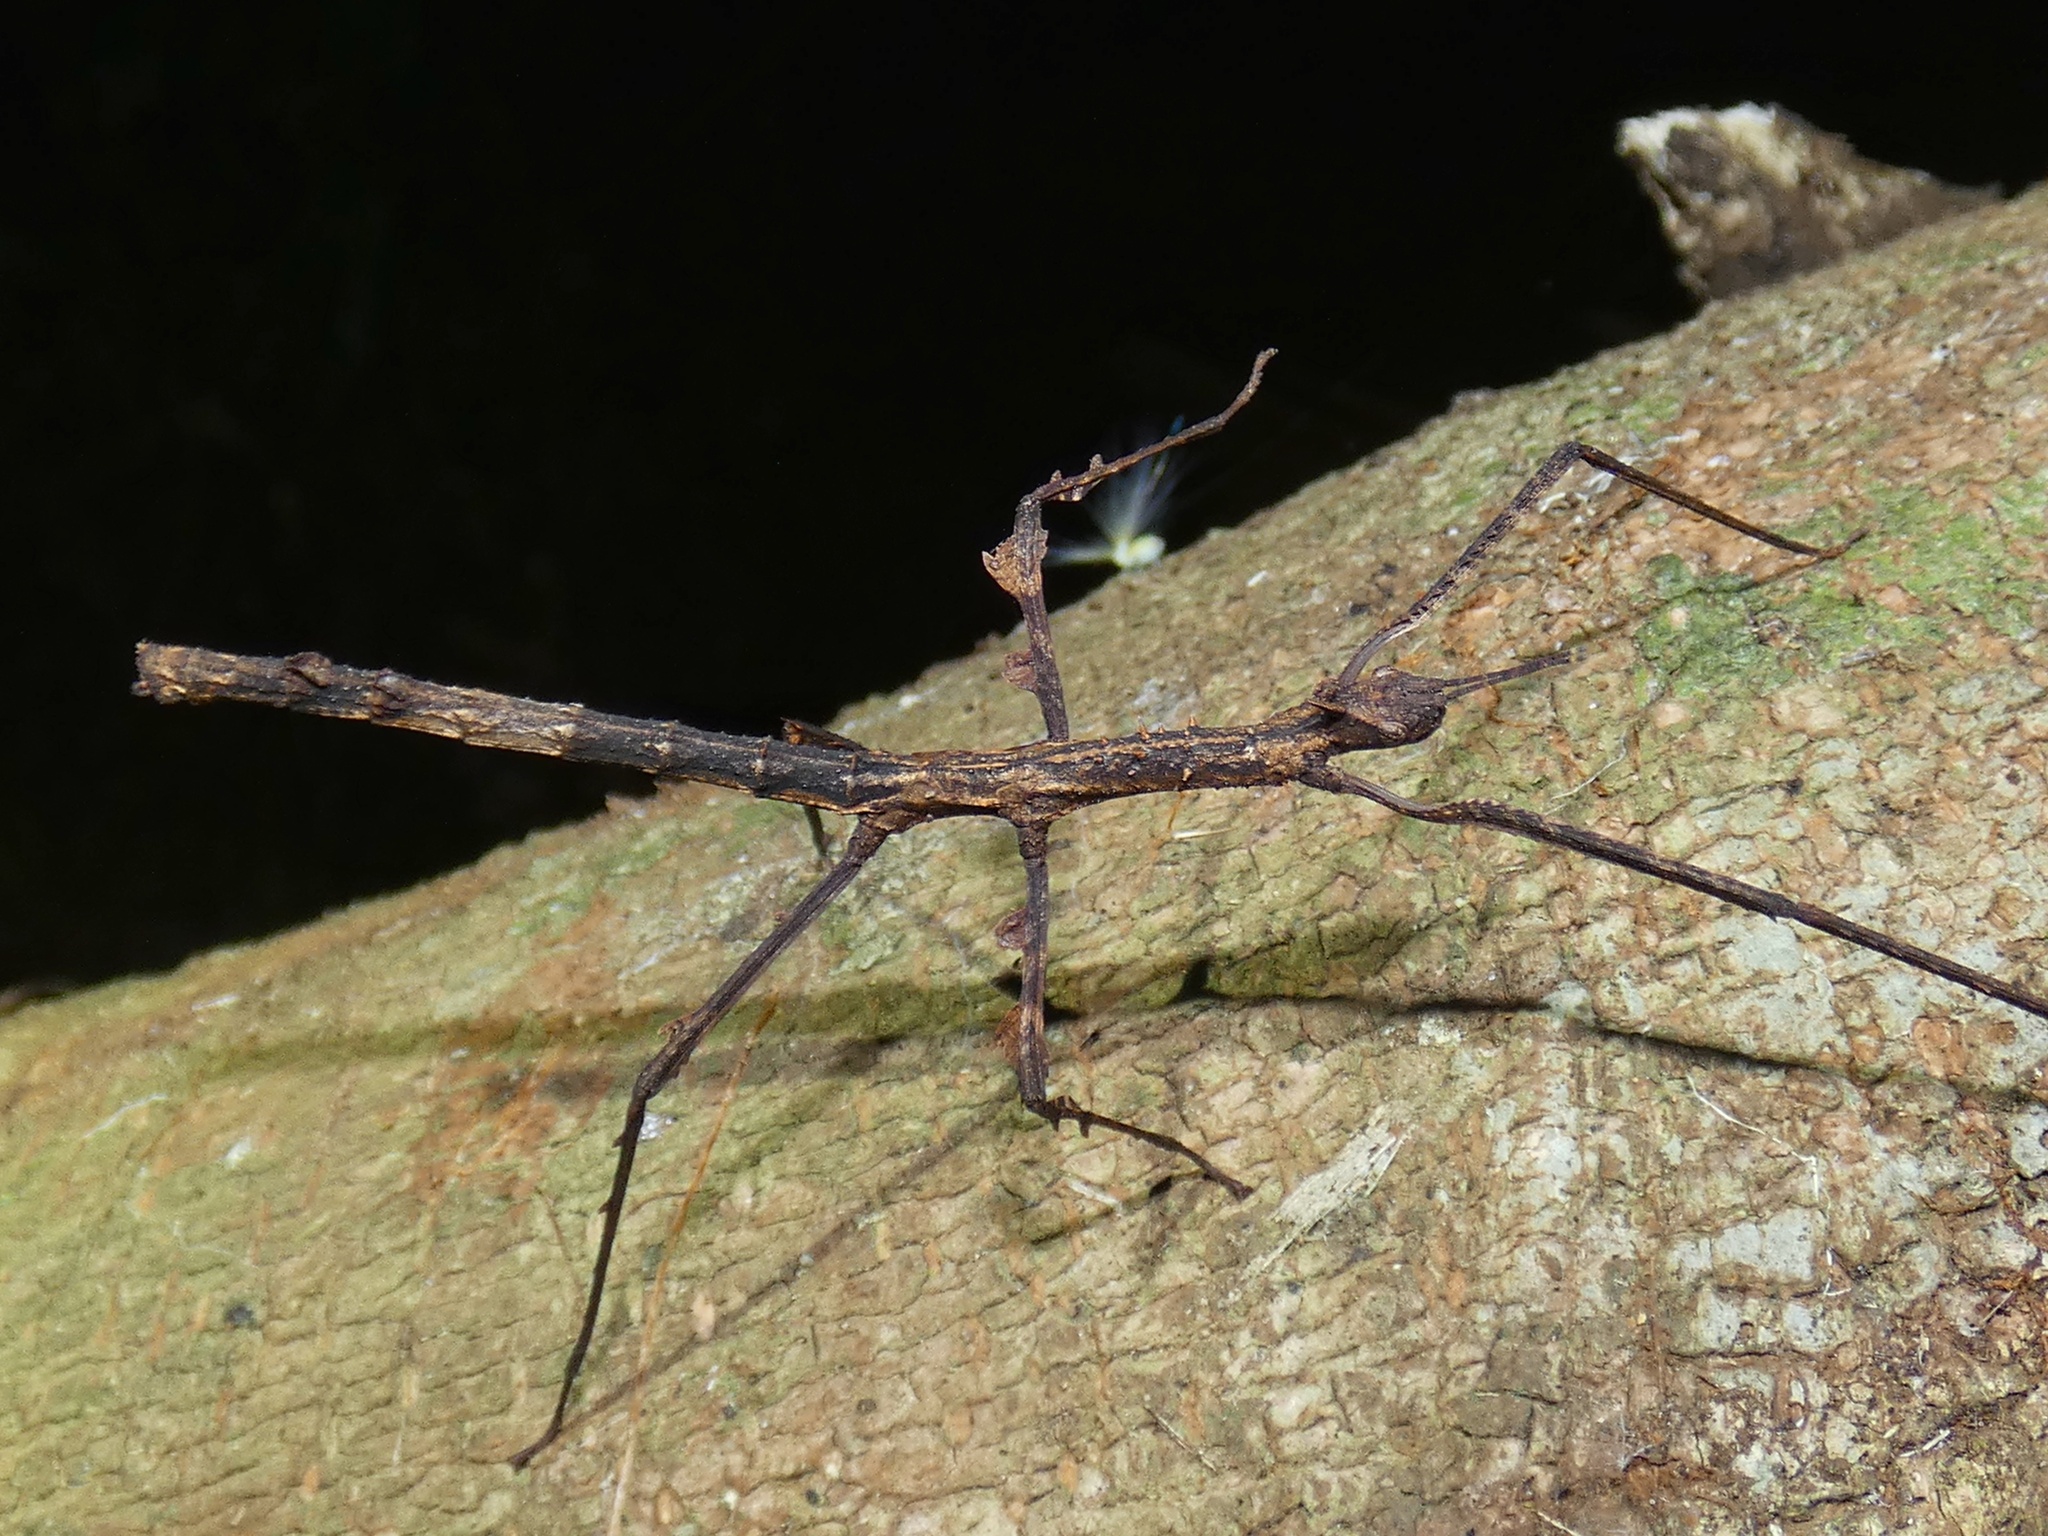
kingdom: Animalia
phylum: Arthropoda
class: Insecta
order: Phasmida
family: Phasmatidae
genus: Onchestus
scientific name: Onchestus rentzi
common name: Rentz's stick-insect
